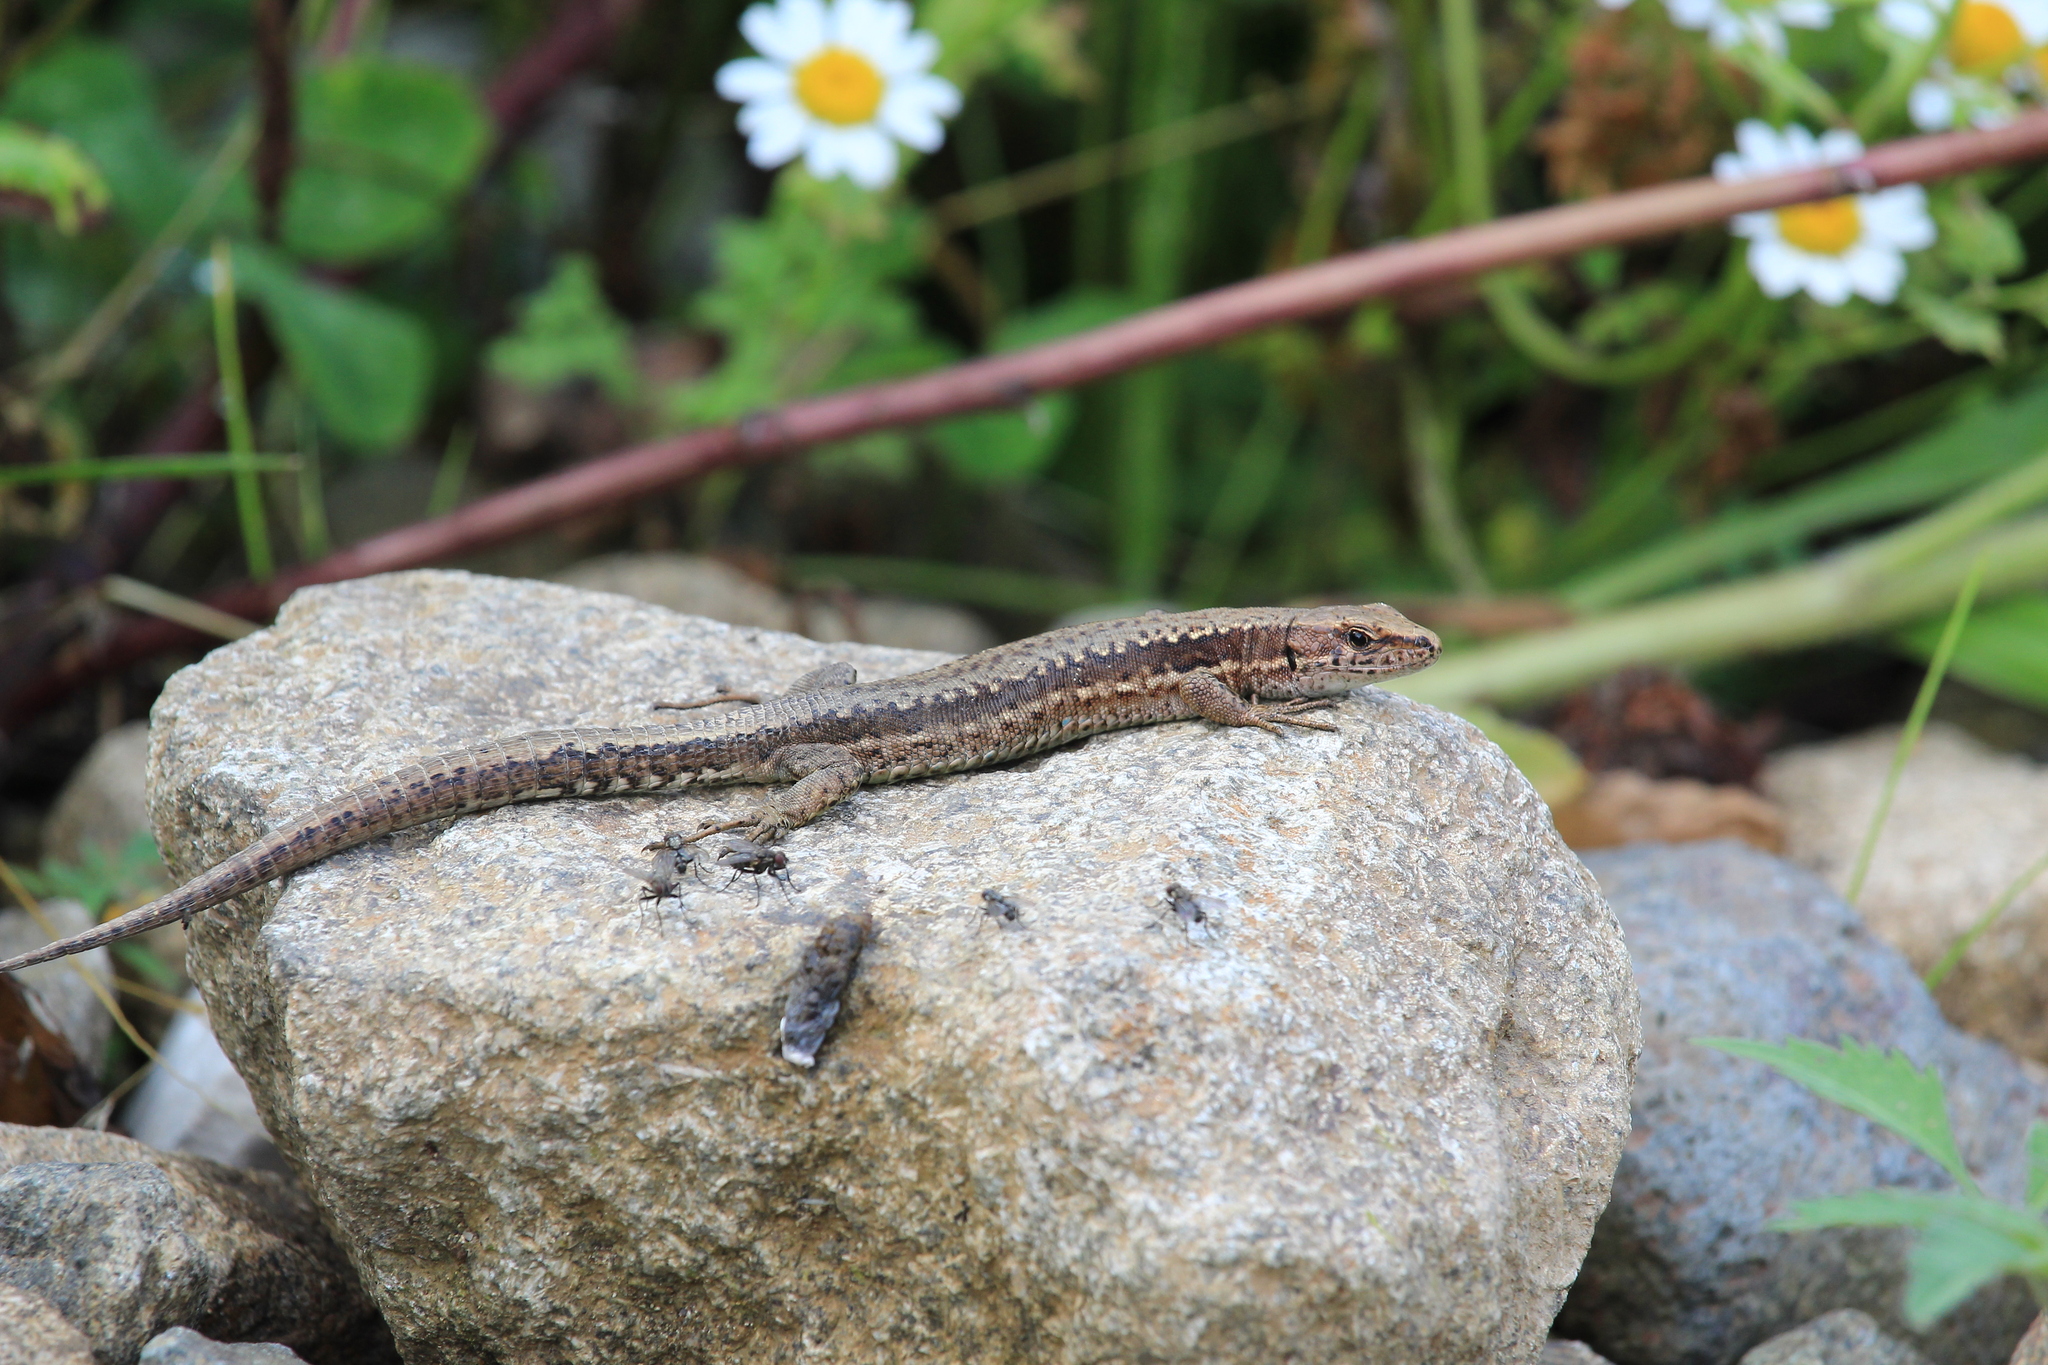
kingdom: Animalia
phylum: Chordata
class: Squamata
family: Lacertidae
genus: Darevskia
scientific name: Darevskia derjugini
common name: Derjugin's lizard
